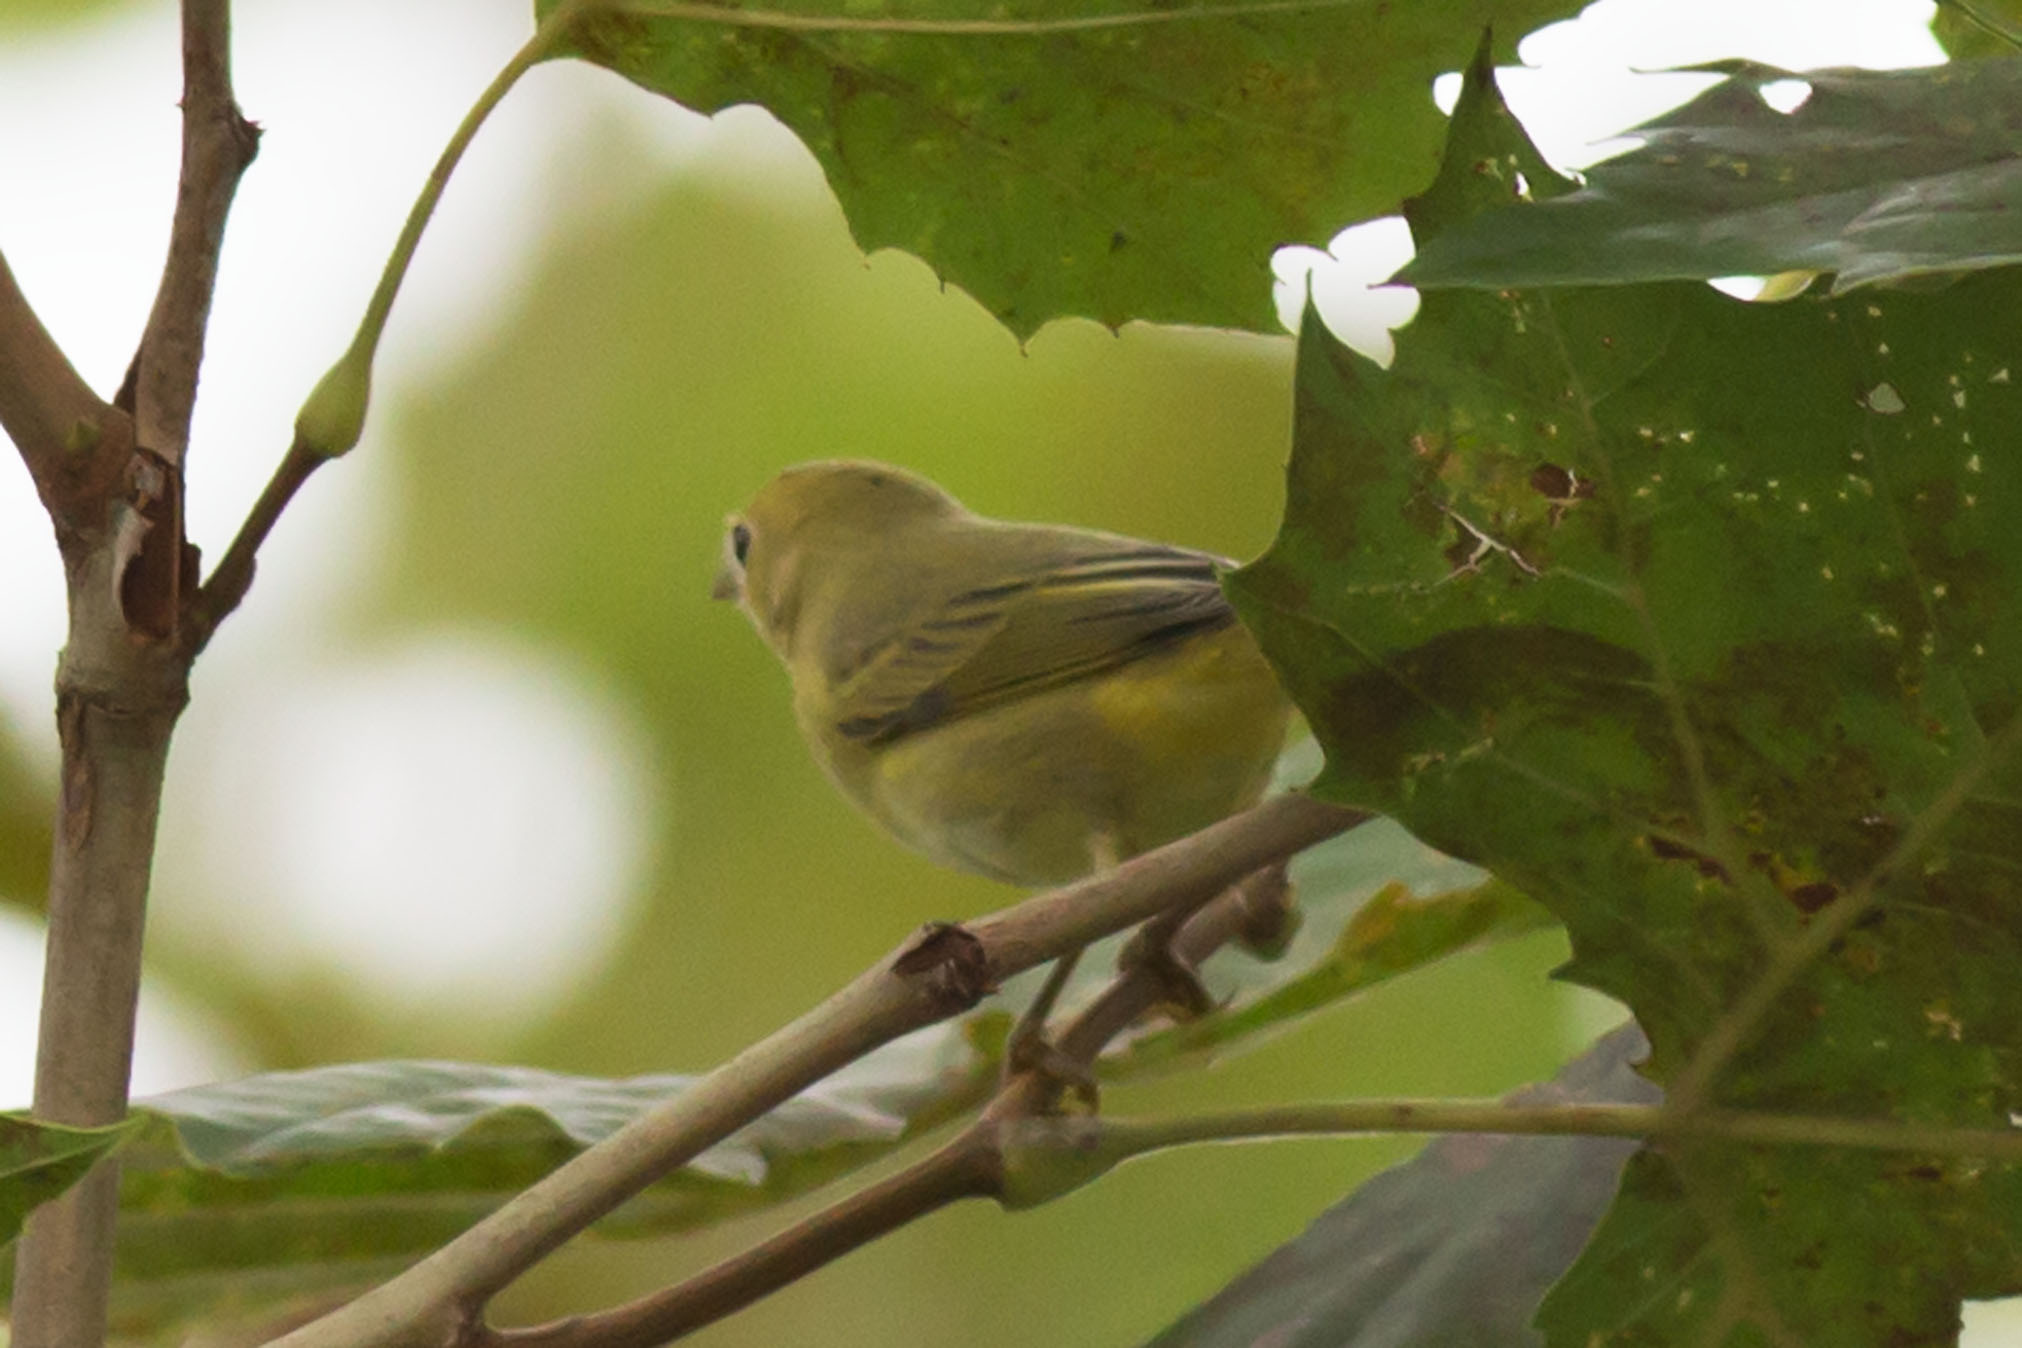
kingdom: Animalia
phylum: Chordata
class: Aves
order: Passeriformes
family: Parulidae
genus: Setophaga
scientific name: Setophaga petechia
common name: Yellow warbler
